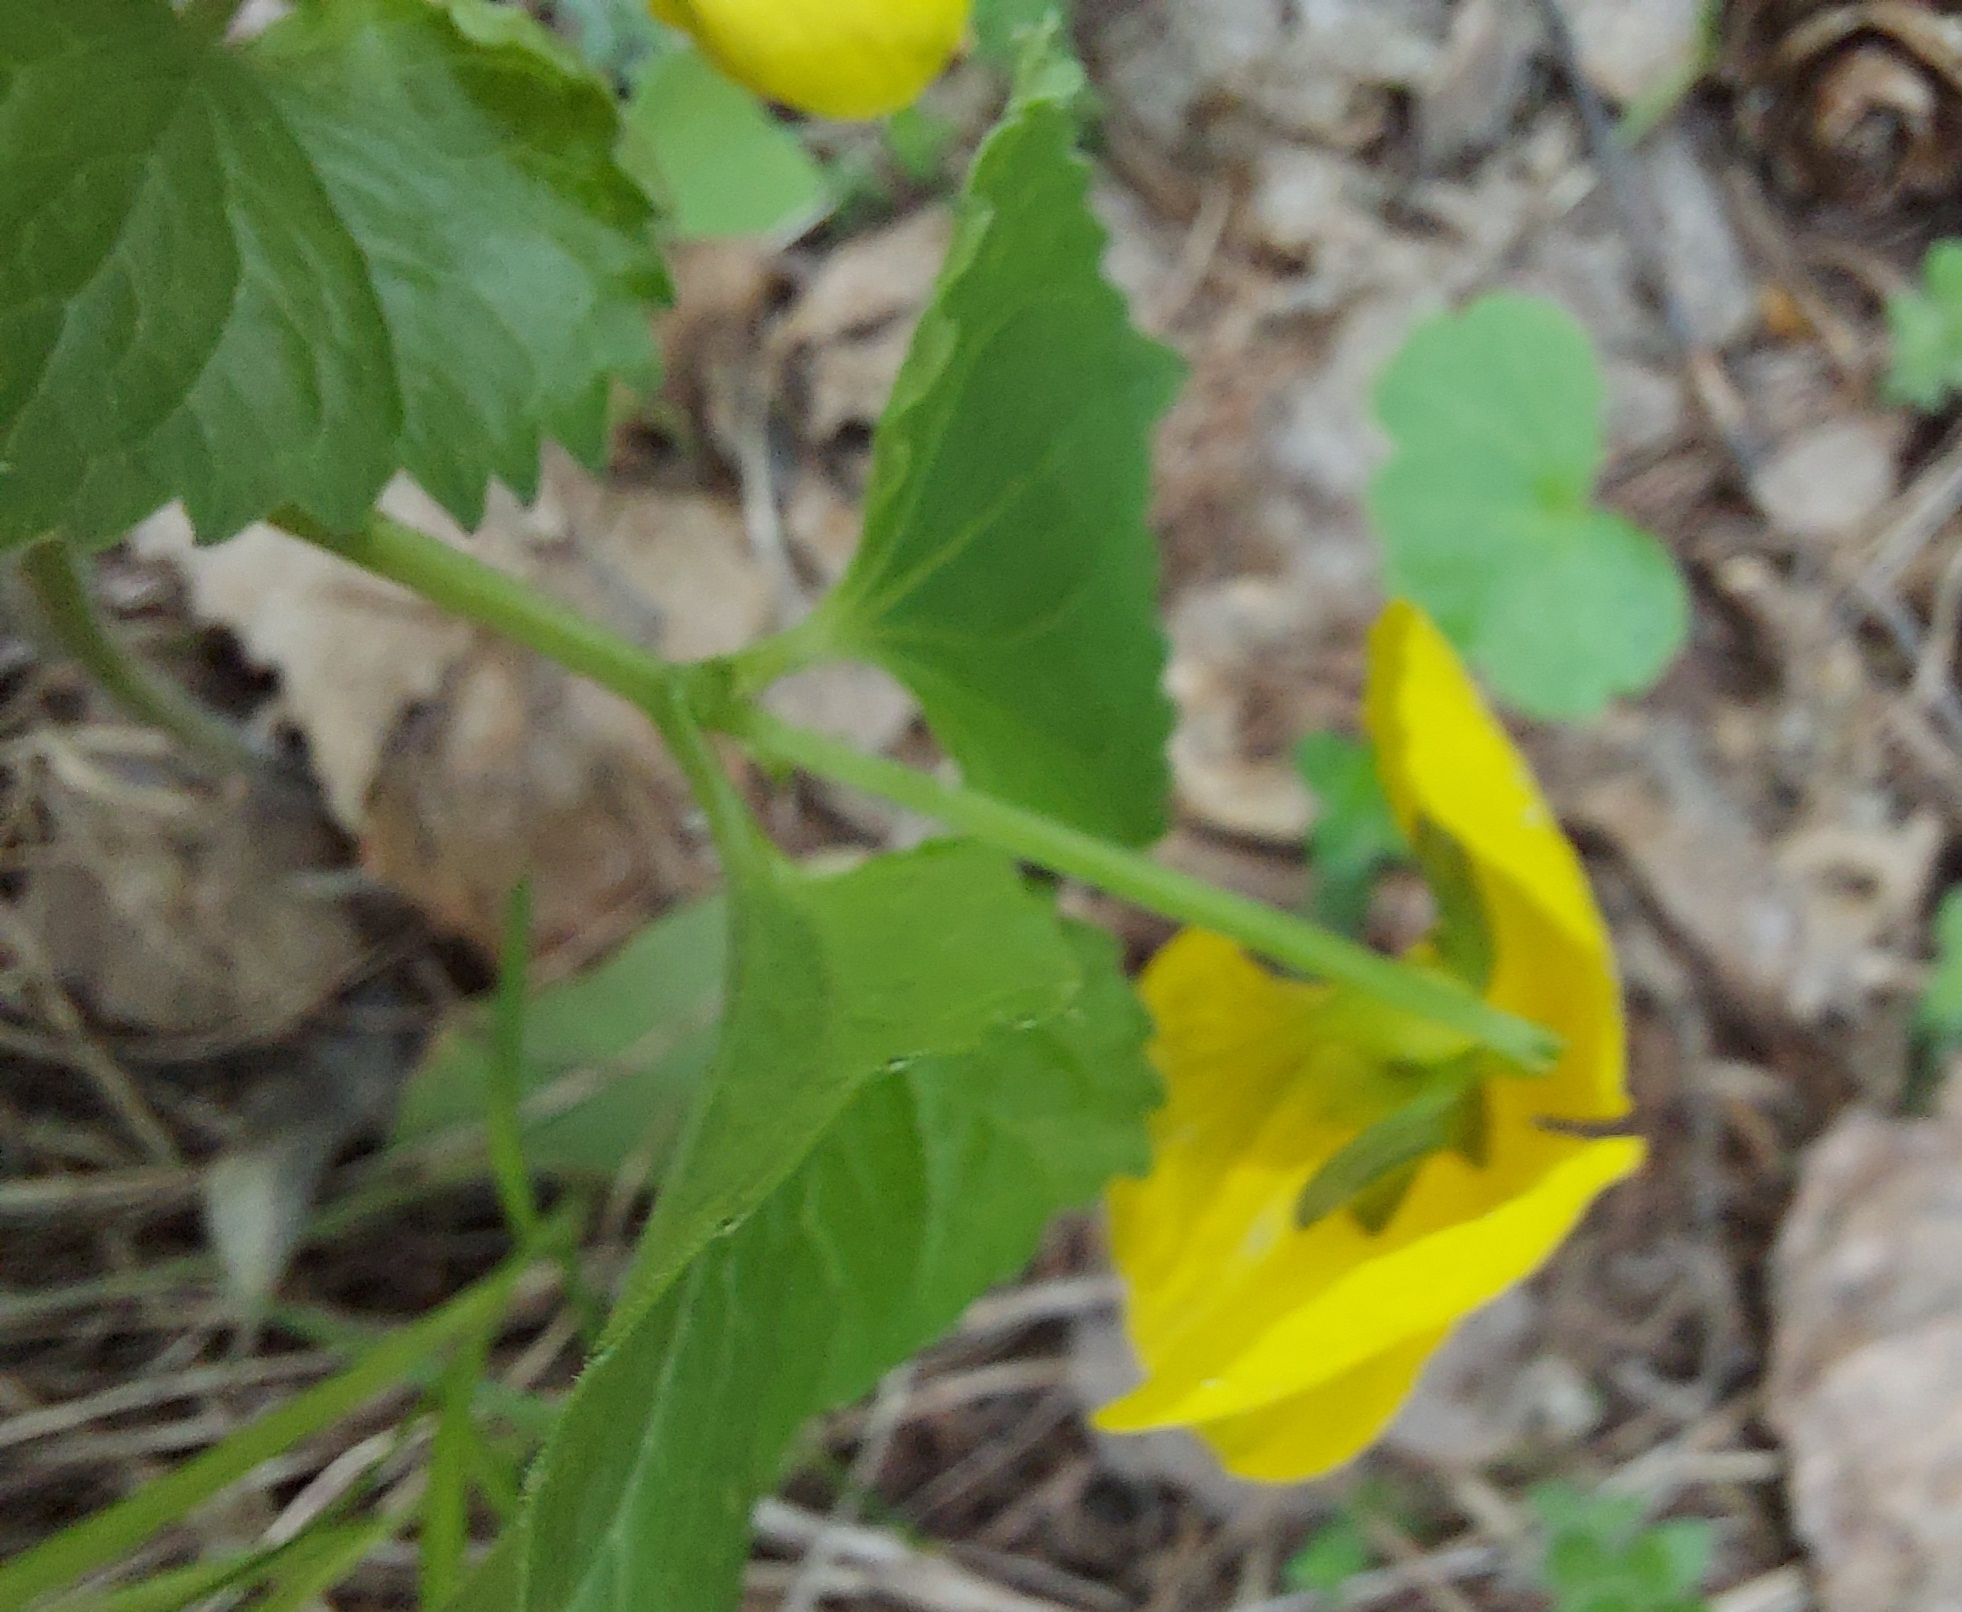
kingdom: Plantae
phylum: Tracheophyta
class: Magnoliopsida
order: Malpighiales
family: Violaceae
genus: Viola
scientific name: Viola uniflora
